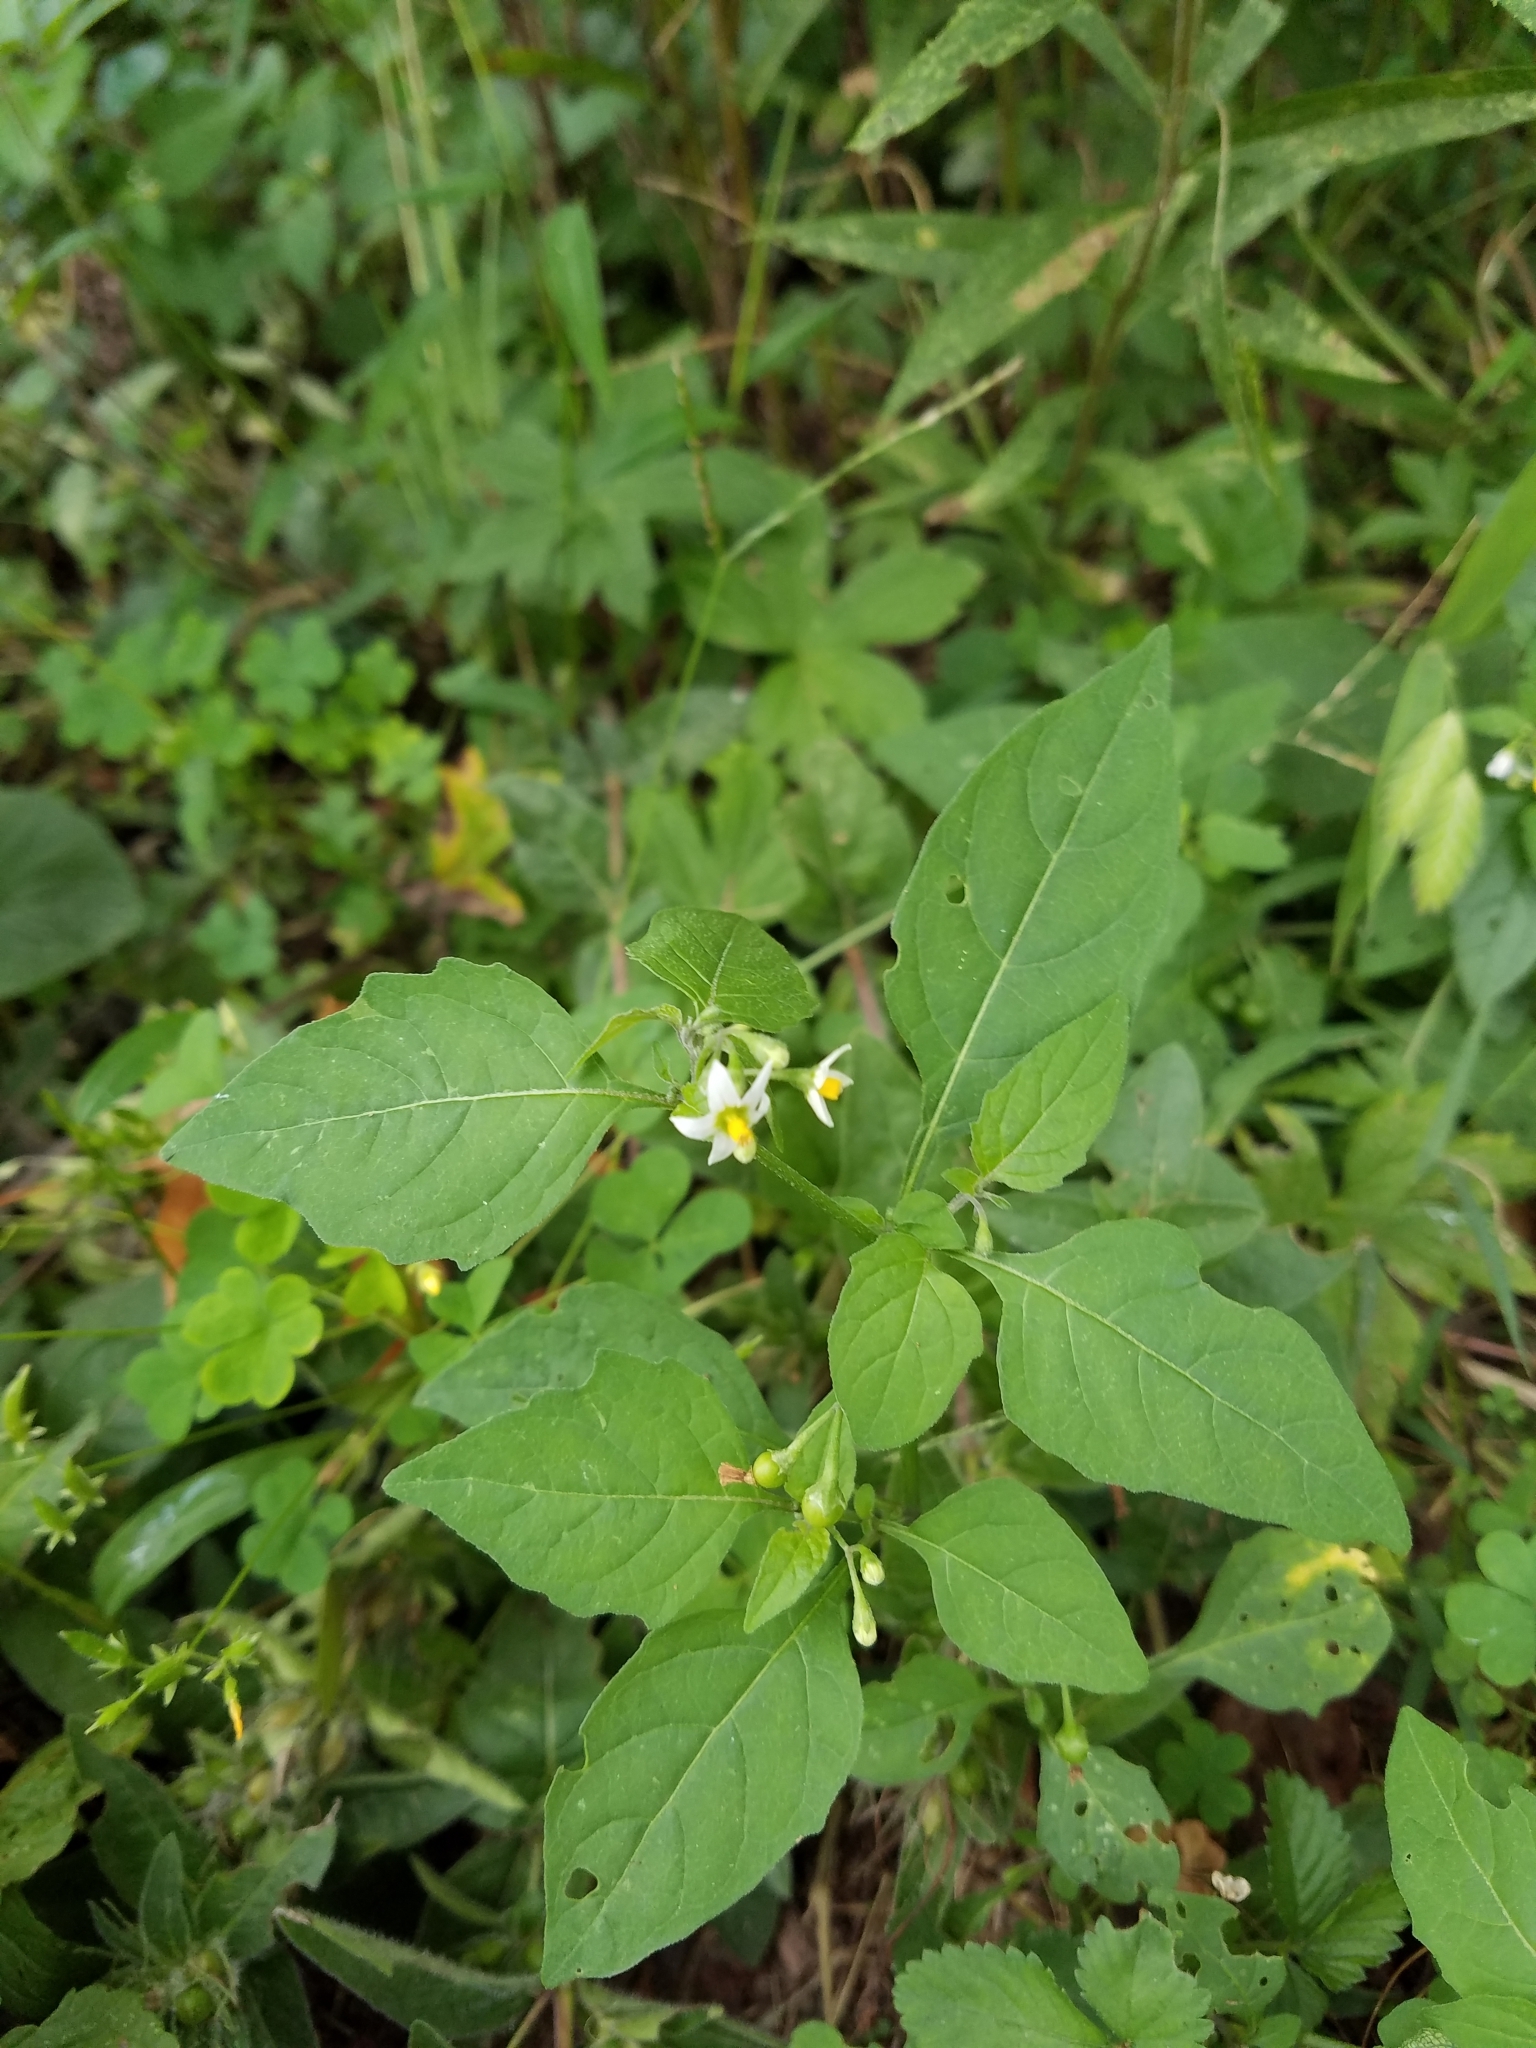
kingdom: Plantae
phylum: Tracheophyta
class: Magnoliopsida
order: Solanales
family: Solanaceae
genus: Solanum
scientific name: Solanum emulans
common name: Eastern black nightshade
